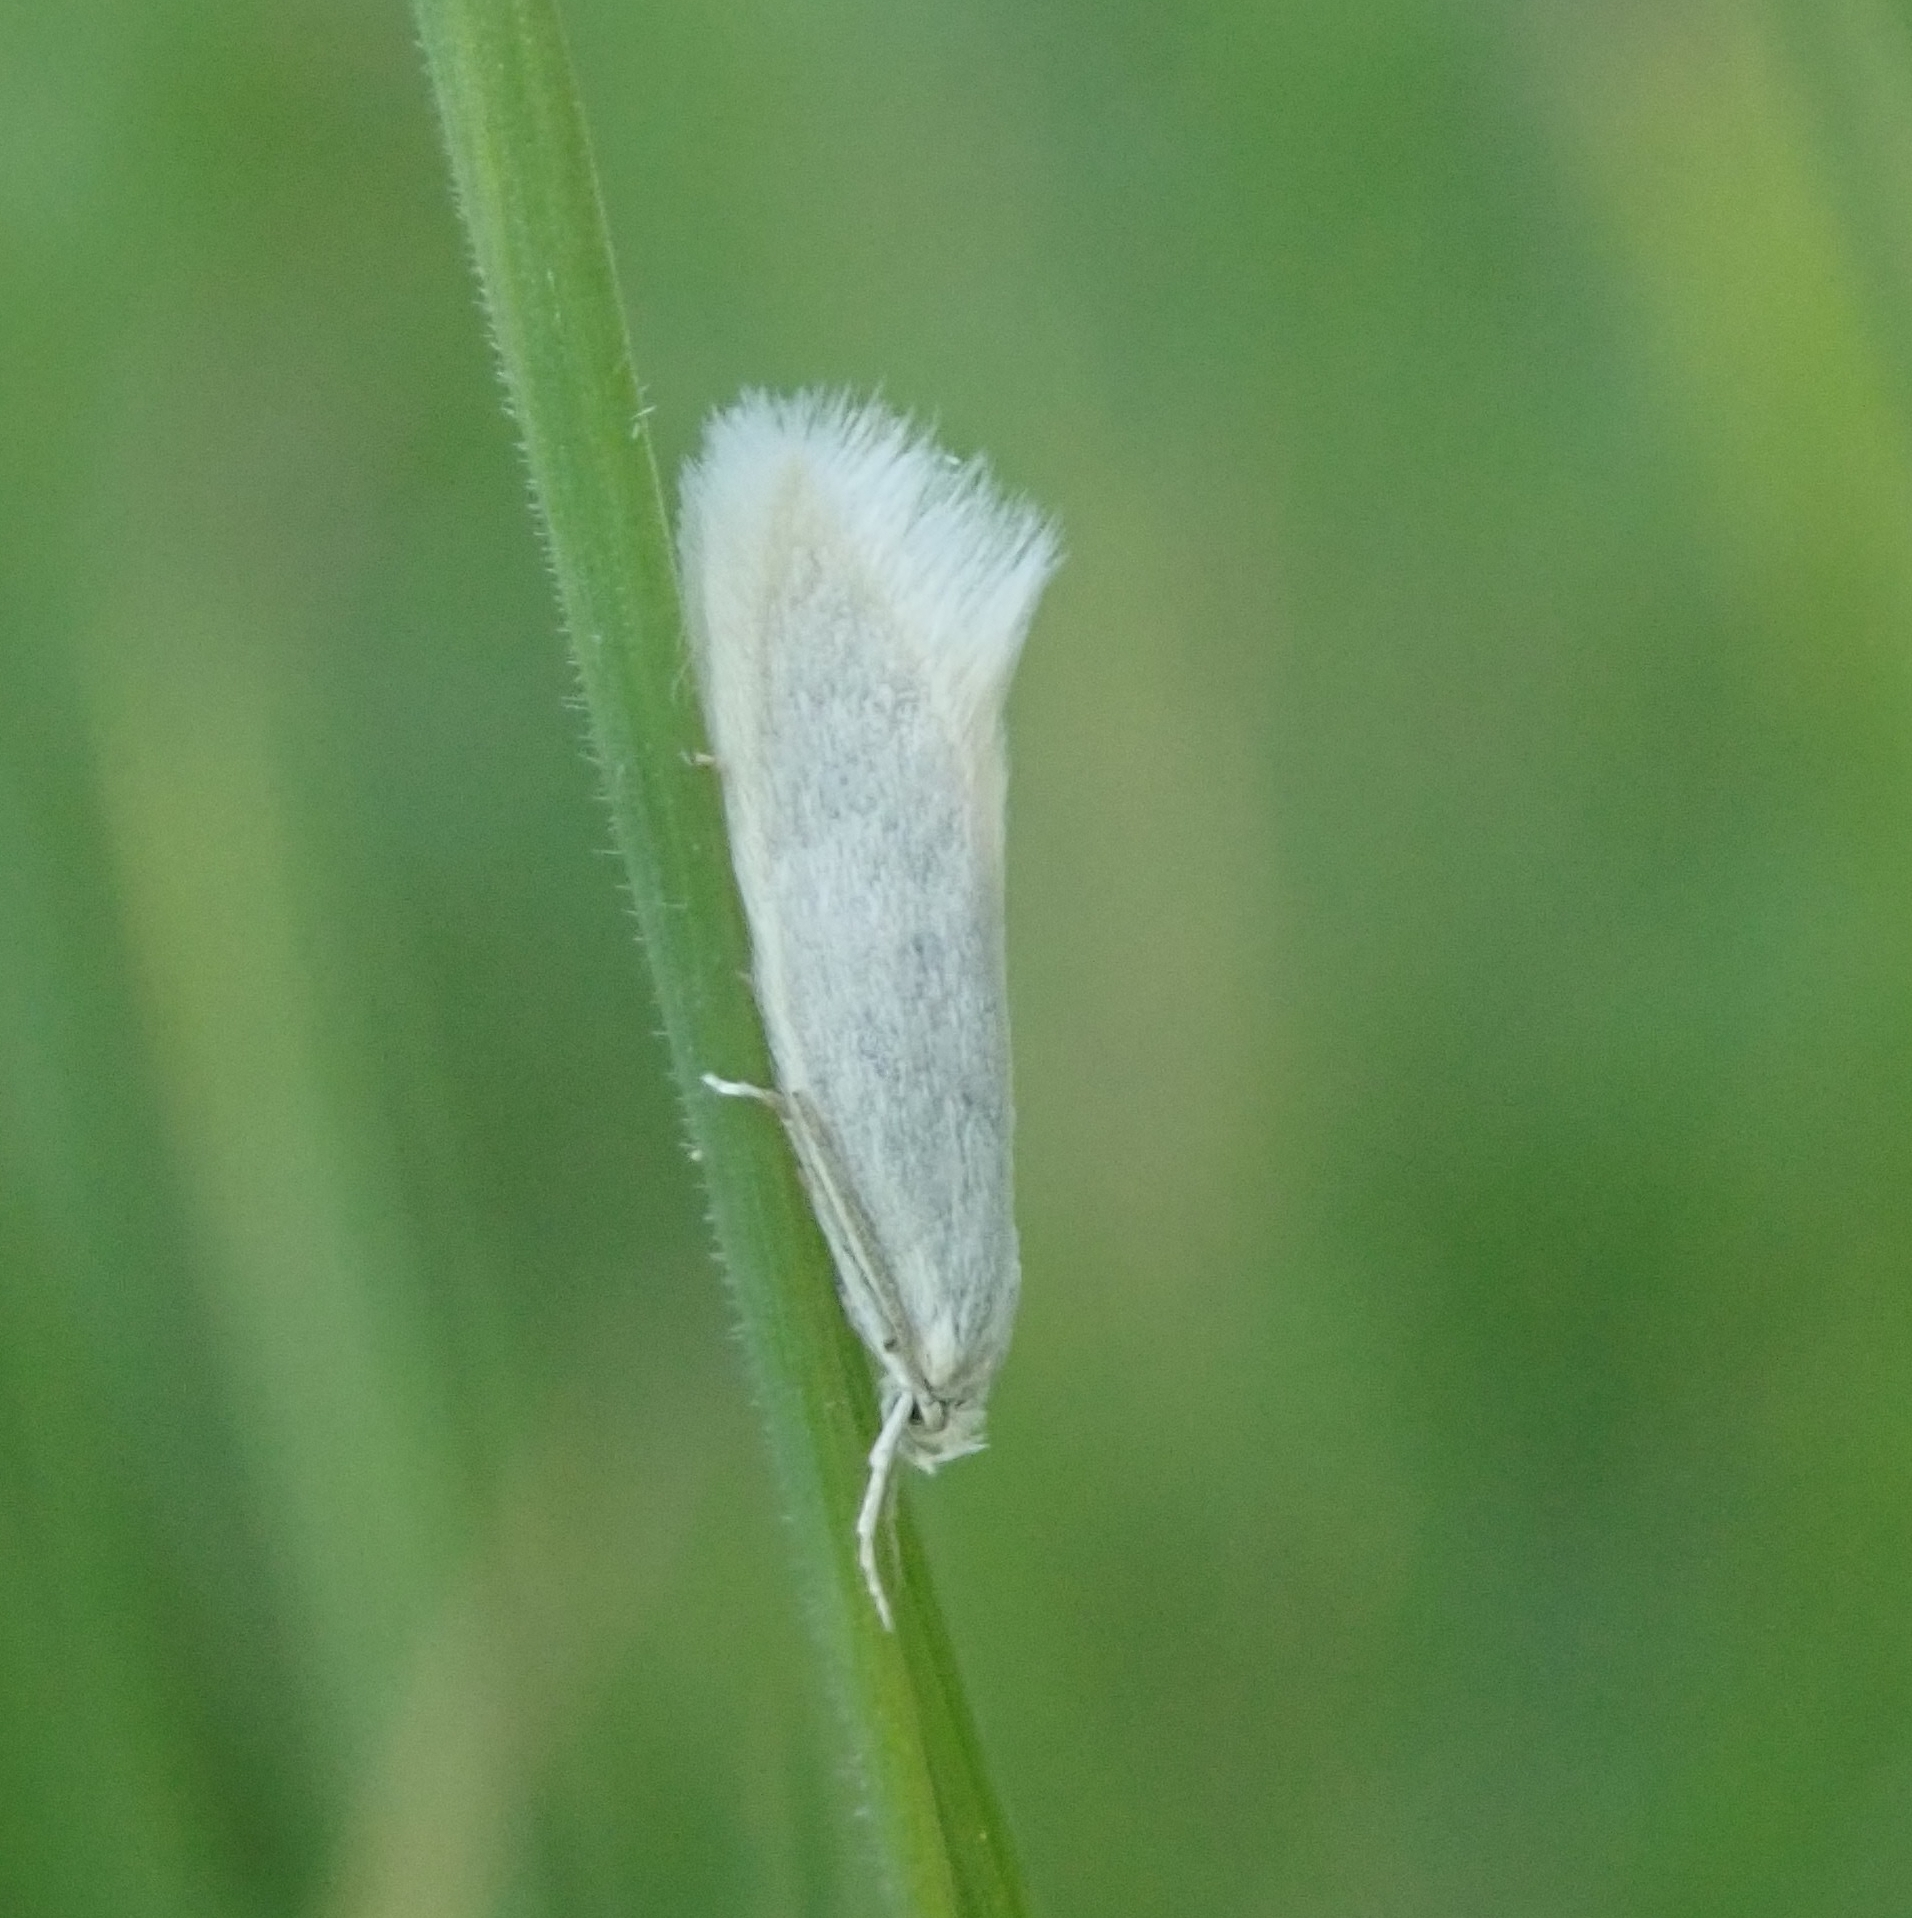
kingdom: Animalia
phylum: Arthropoda
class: Insecta
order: Lepidoptera
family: Elachistidae
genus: Elachista
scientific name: Elachista argentella
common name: Swan-feather dwarf
